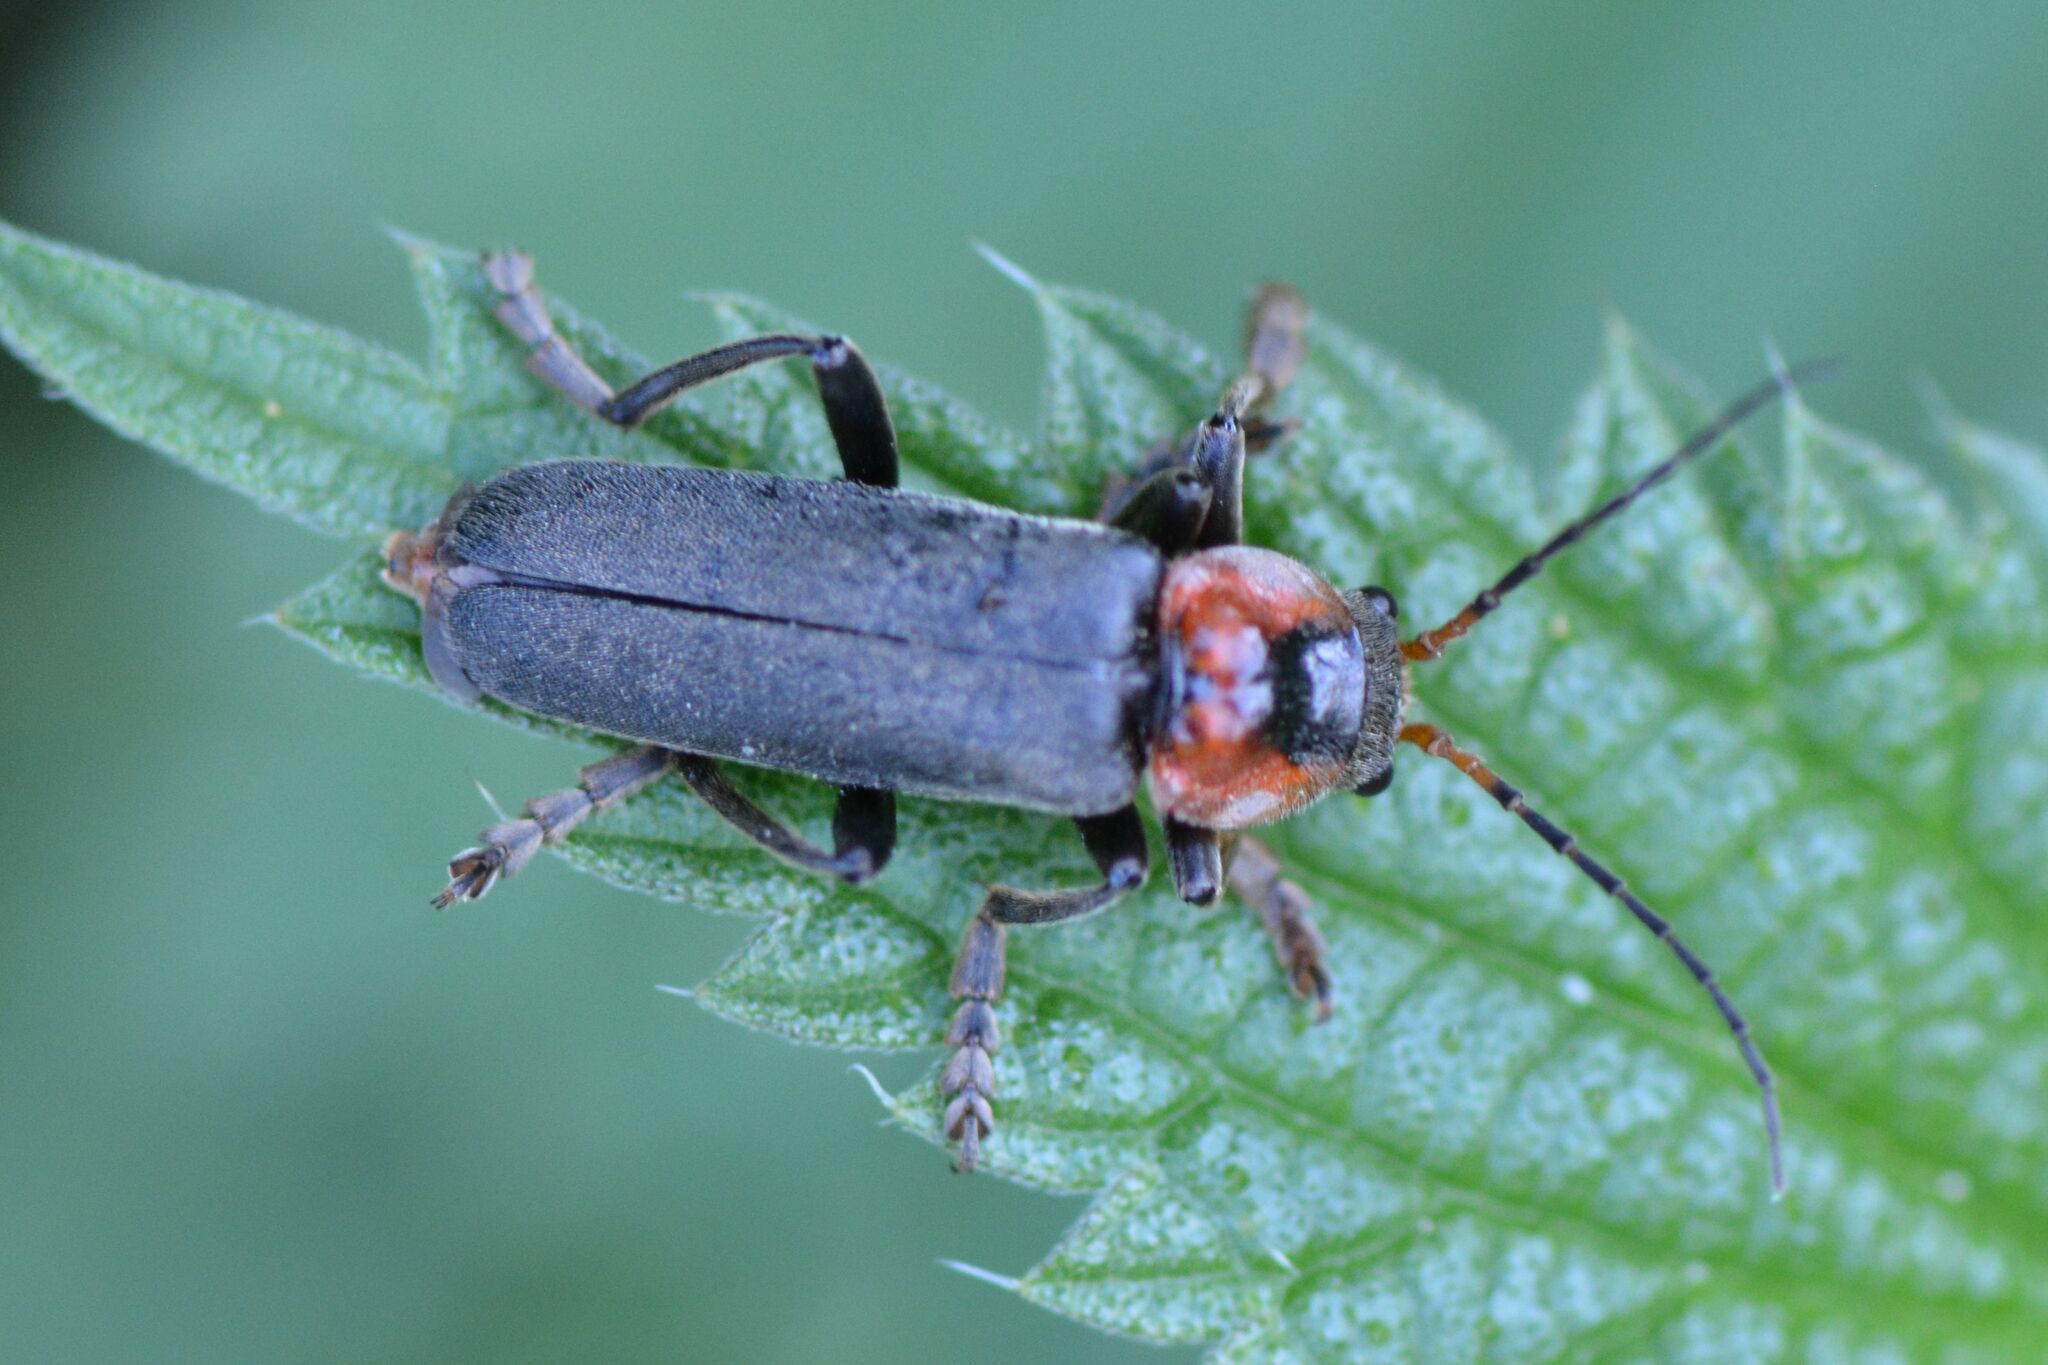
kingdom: Animalia
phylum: Arthropoda
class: Insecta
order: Coleoptera
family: Cantharidae
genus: Cantharis
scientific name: Cantharis fusca
